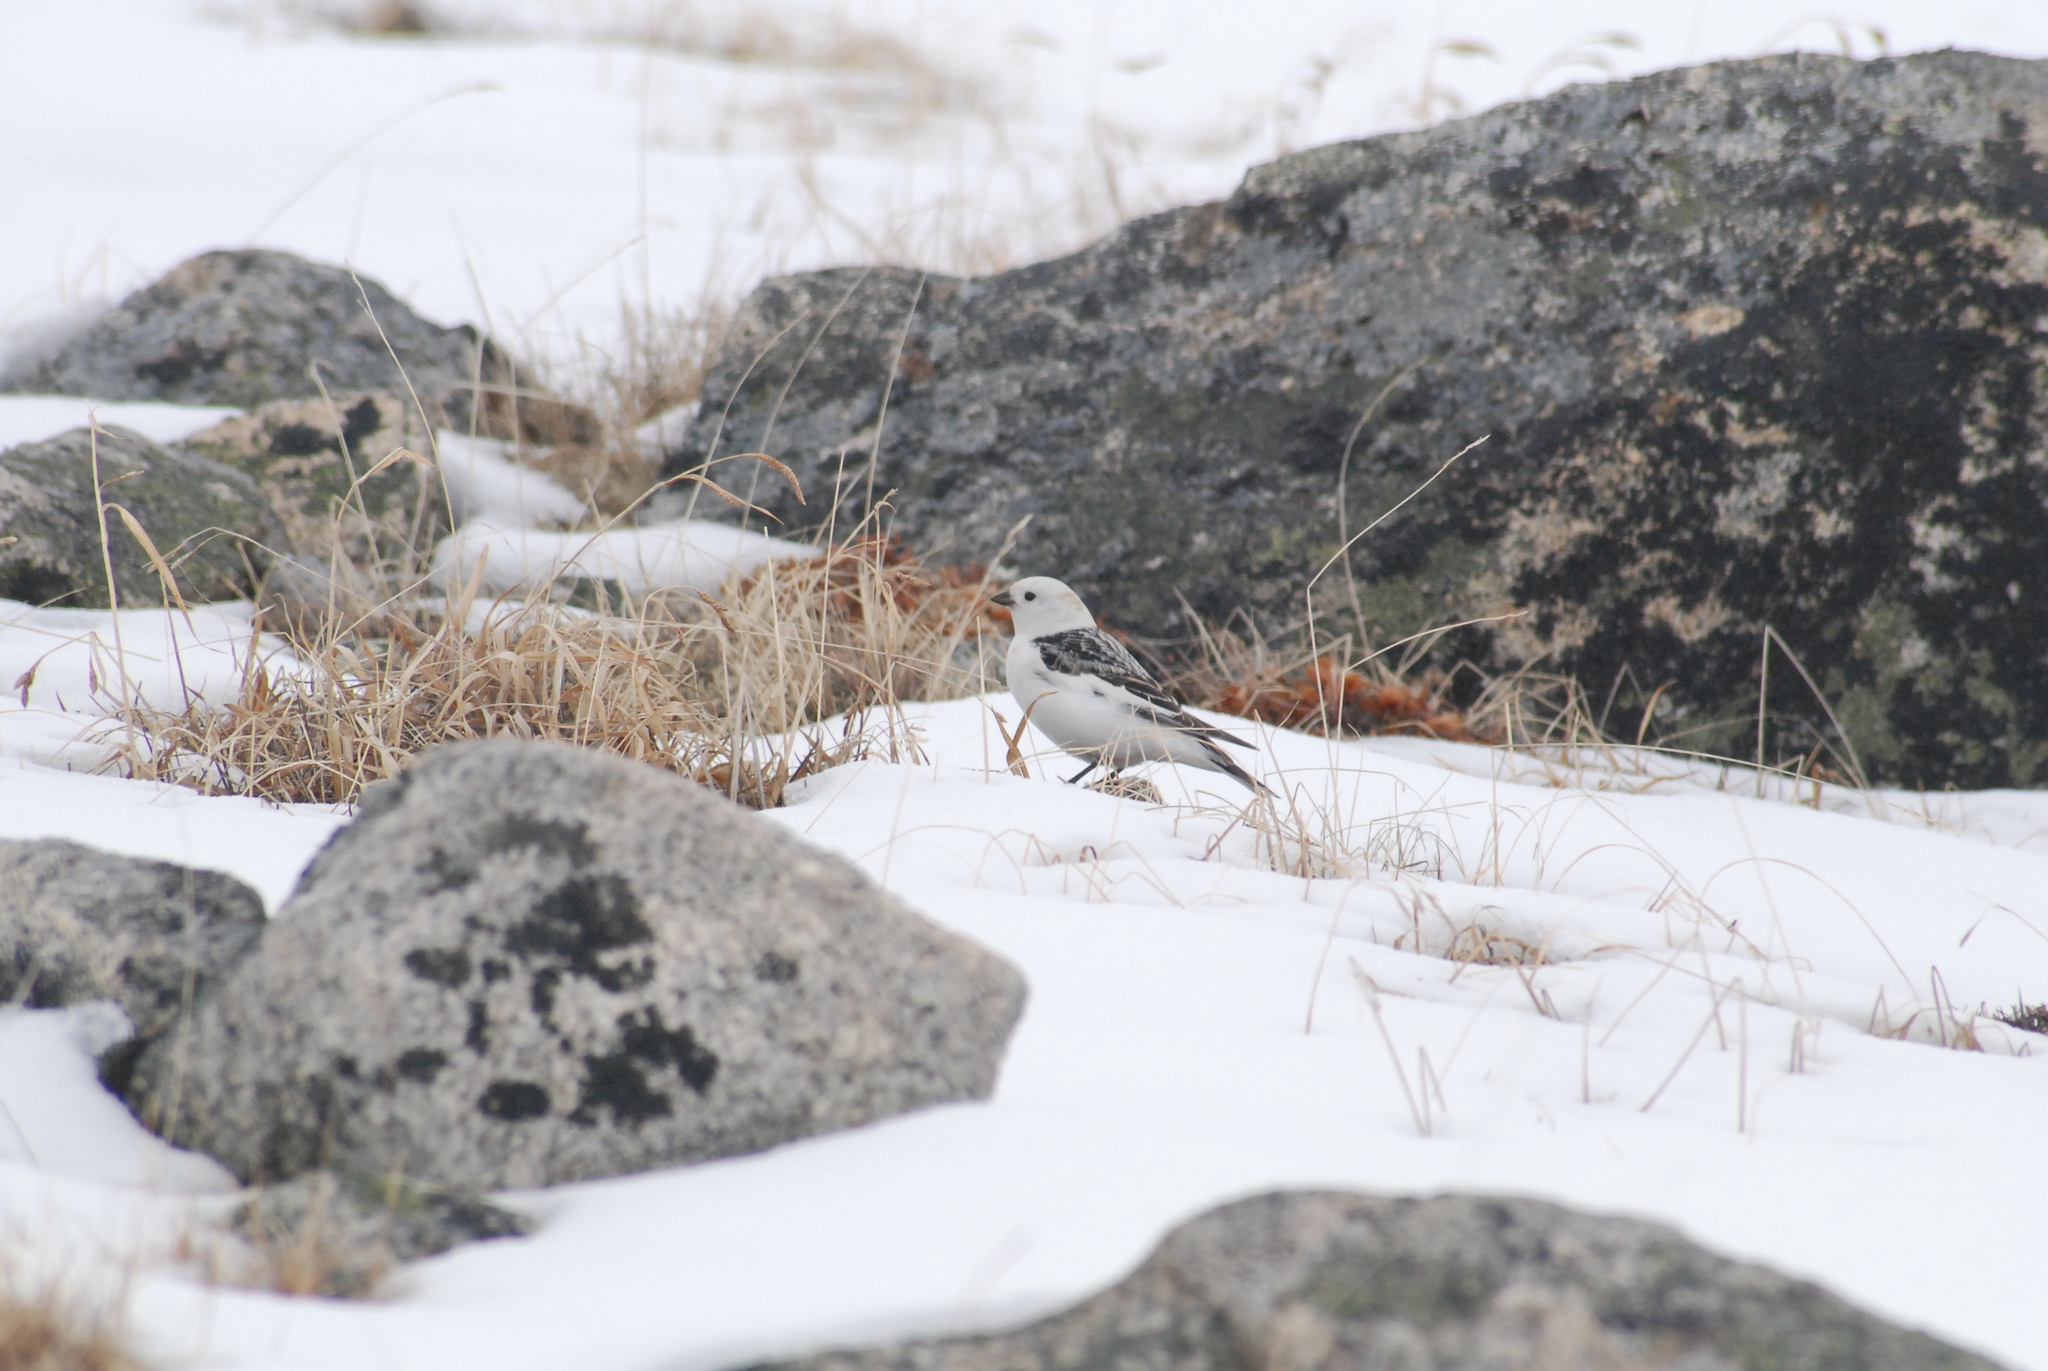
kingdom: Animalia
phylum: Chordata
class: Aves
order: Passeriformes
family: Calcariidae
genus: Plectrophenax
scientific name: Plectrophenax nivalis
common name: Snow bunting
